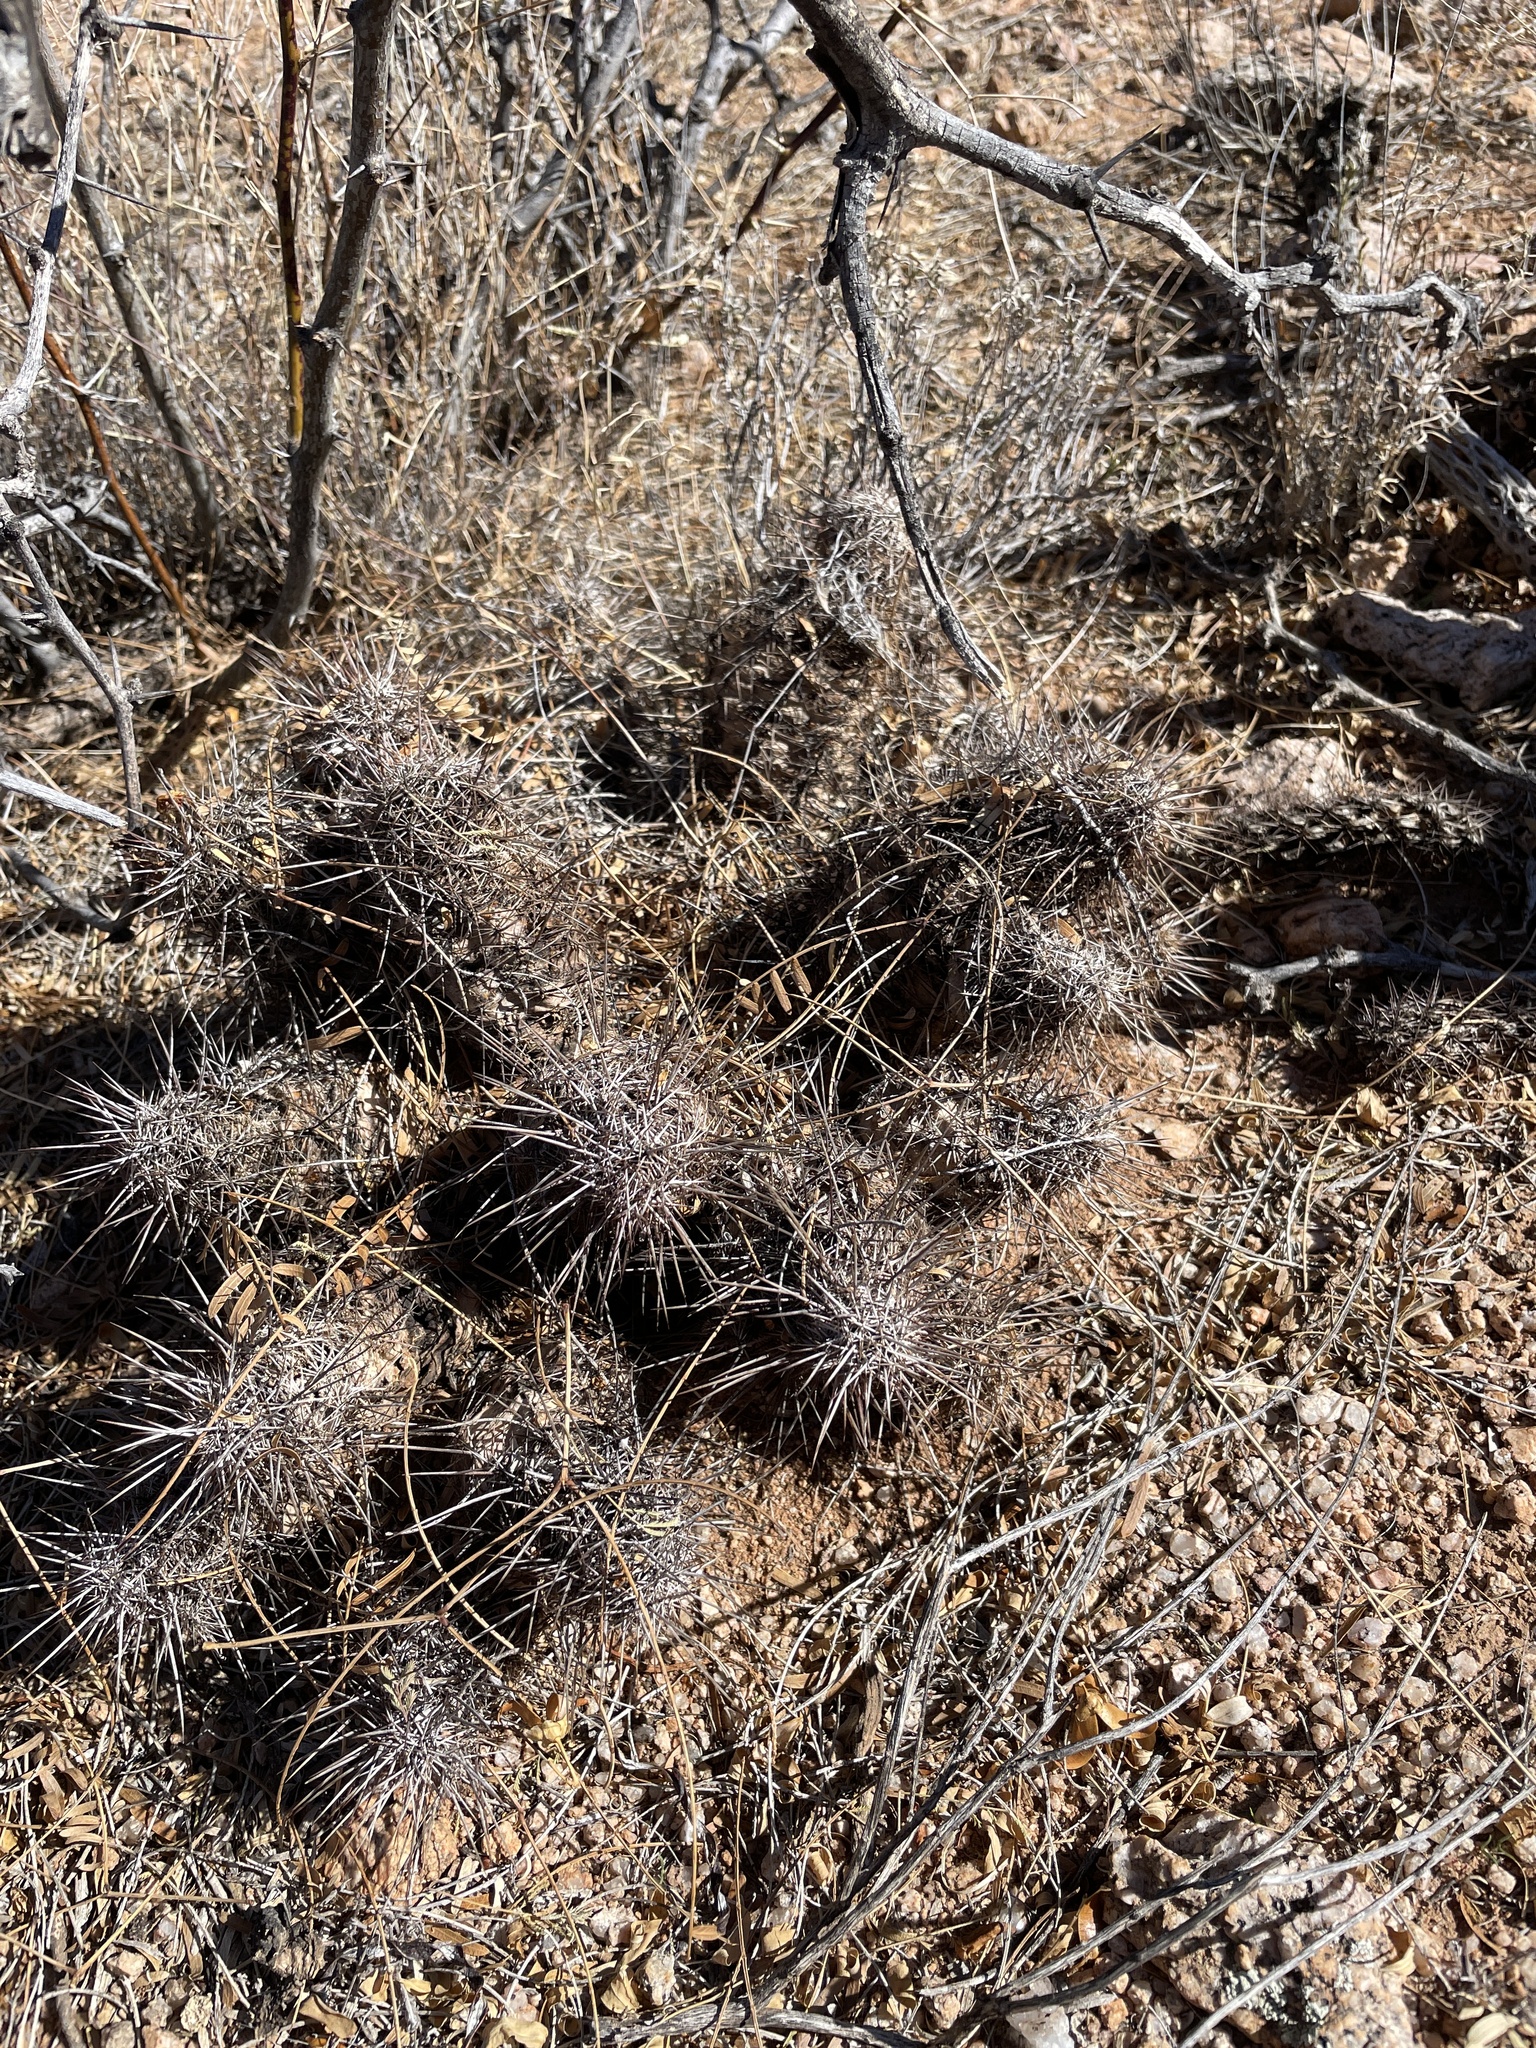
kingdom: Plantae
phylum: Tracheophyta
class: Magnoliopsida
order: Caryophyllales
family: Cactaceae
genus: Echinocereus
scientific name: Echinocereus fendleri
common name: Fendler's hedgehog cactus
